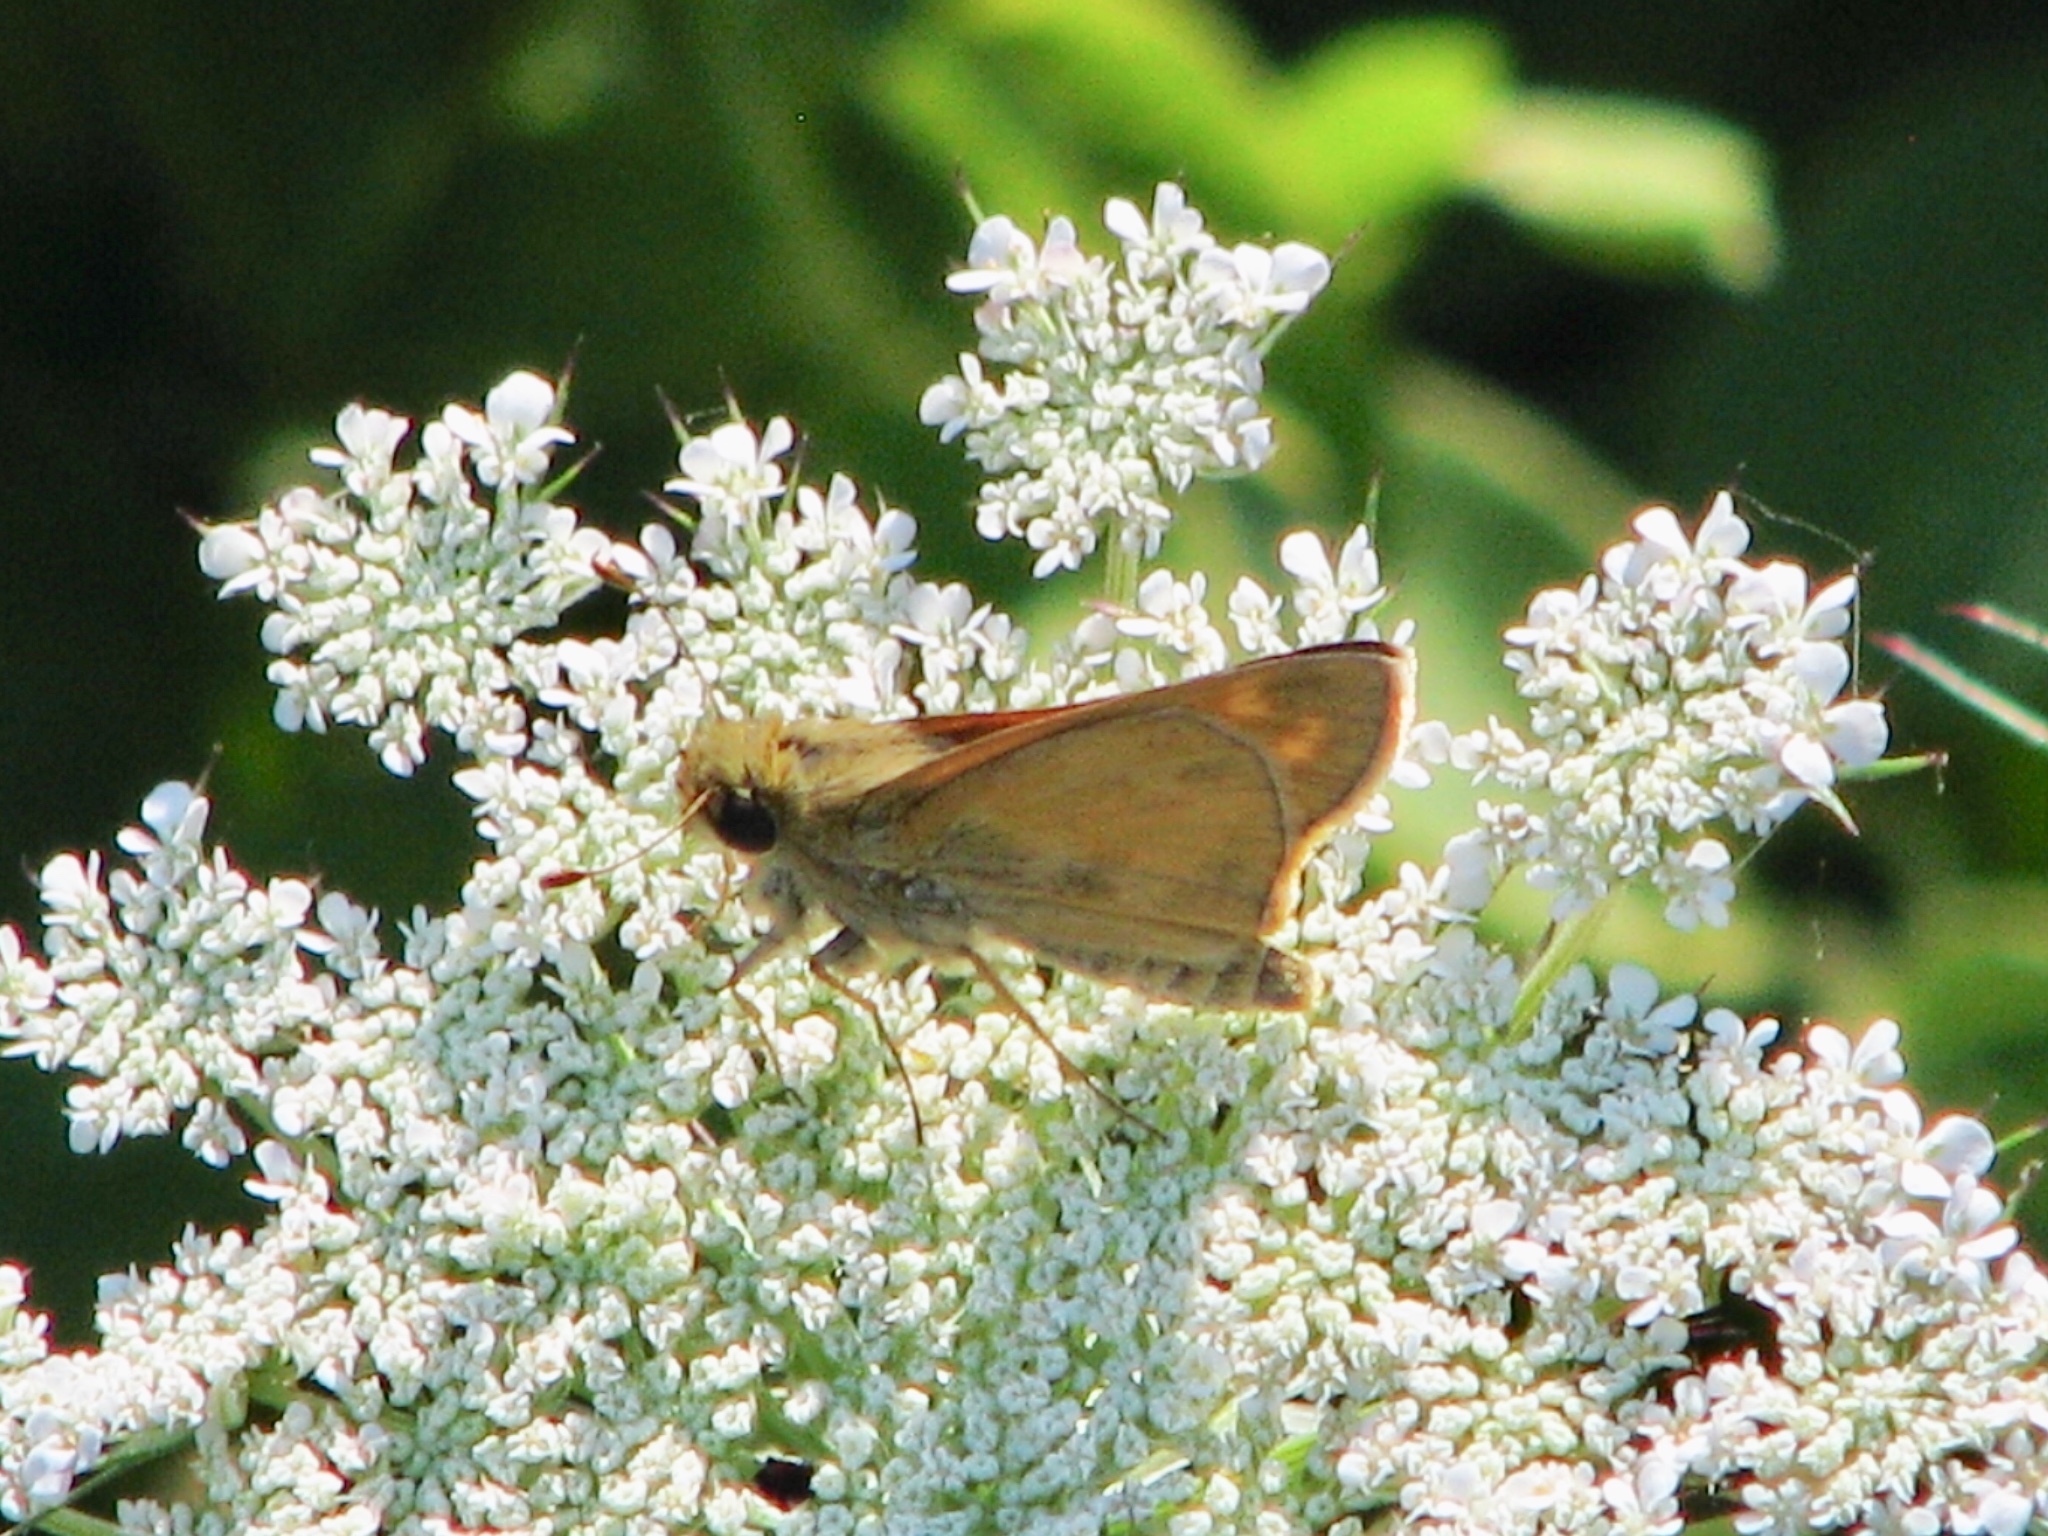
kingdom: Animalia
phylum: Arthropoda
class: Insecta
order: Lepidoptera
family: Hesperiidae
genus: Atalopedes
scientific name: Atalopedes
